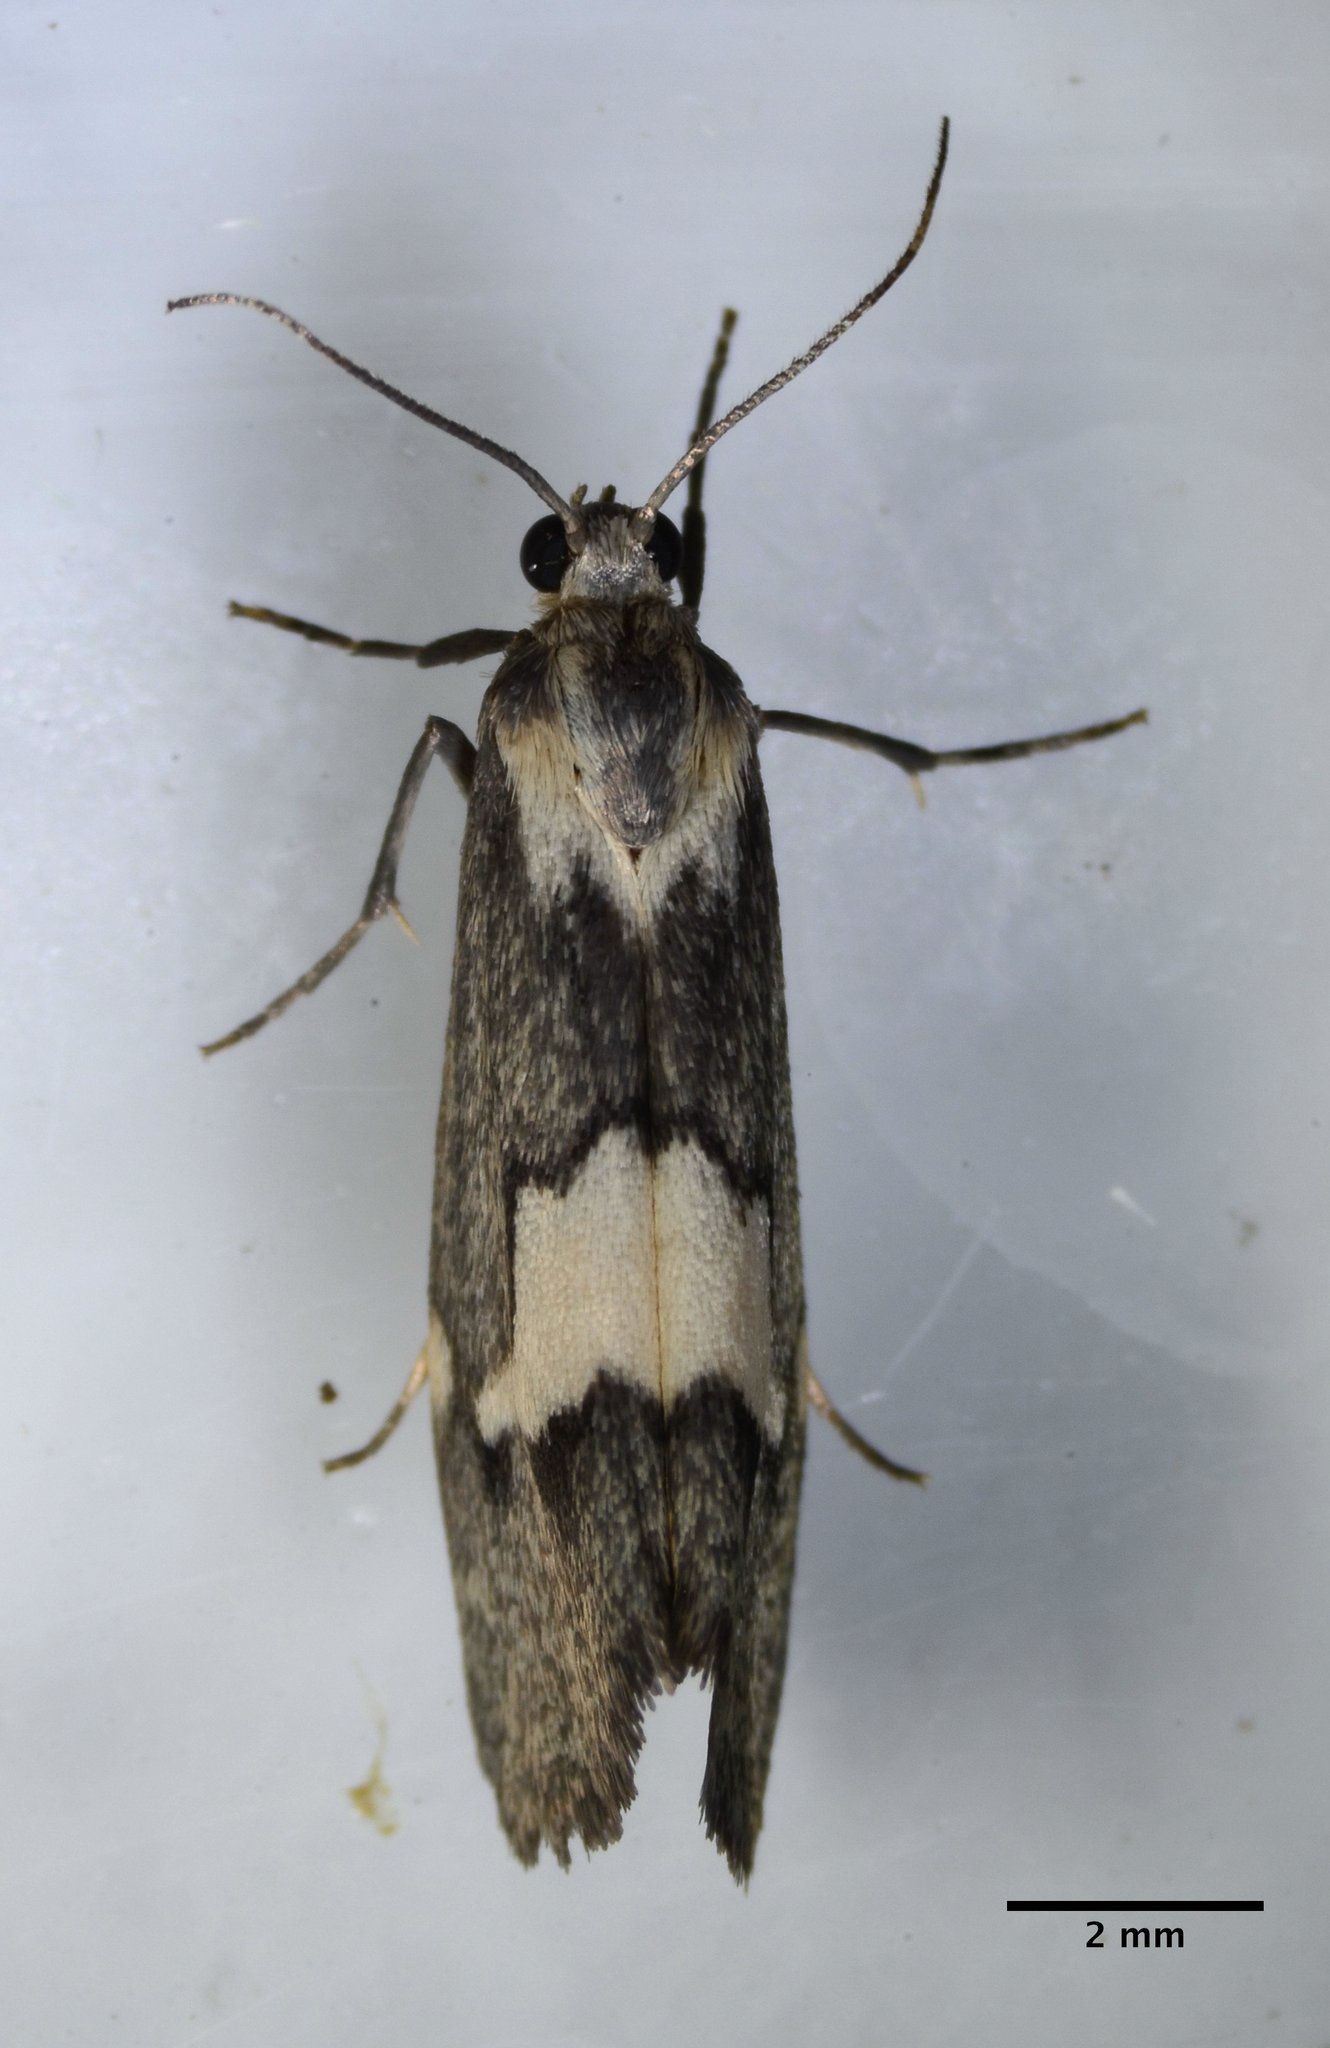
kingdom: Animalia
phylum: Arthropoda
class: Insecta
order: Lepidoptera
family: Erebidae
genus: Cisthene
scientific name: Cisthene deserta
